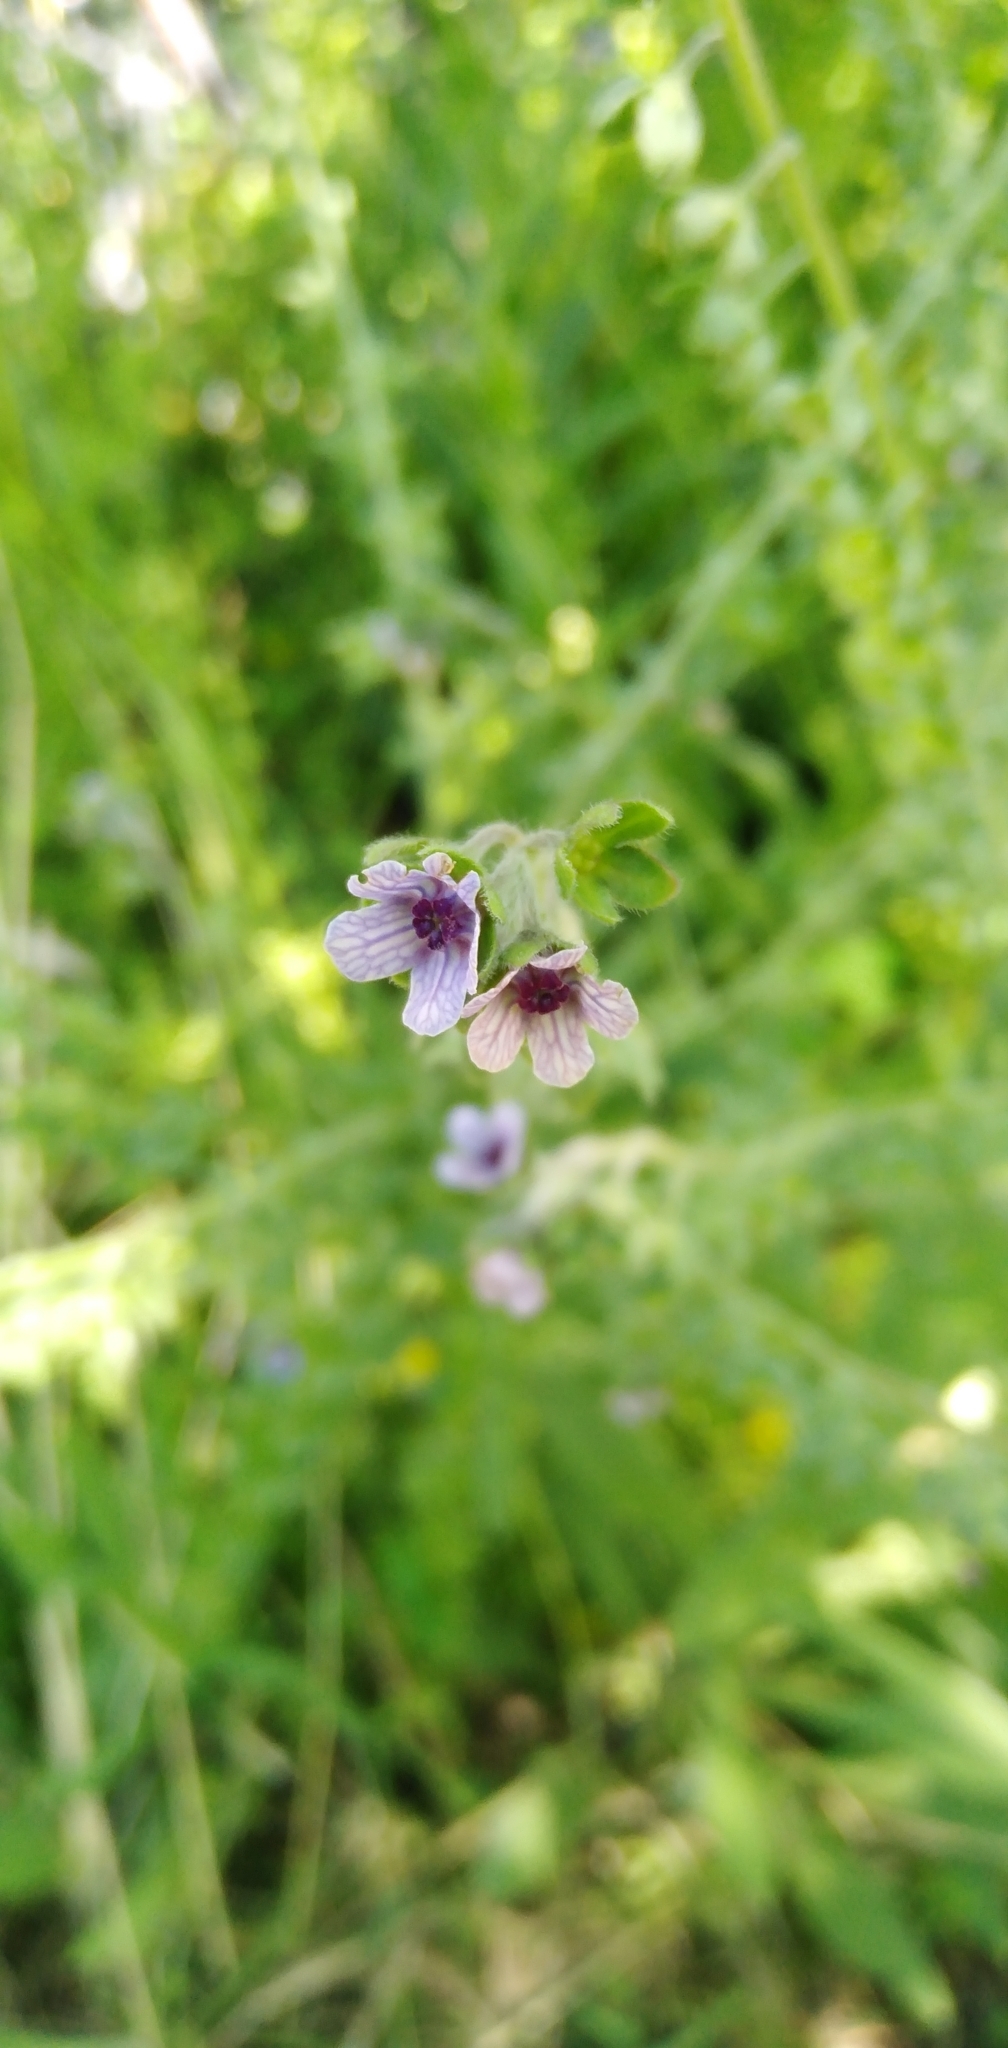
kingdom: Plantae
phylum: Tracheophyta
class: Magnoliopsida
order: Boraginales
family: Boraginaceae
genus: Cynoglossum
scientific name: Cynoglossum creticum
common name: Blue hound's tongue
